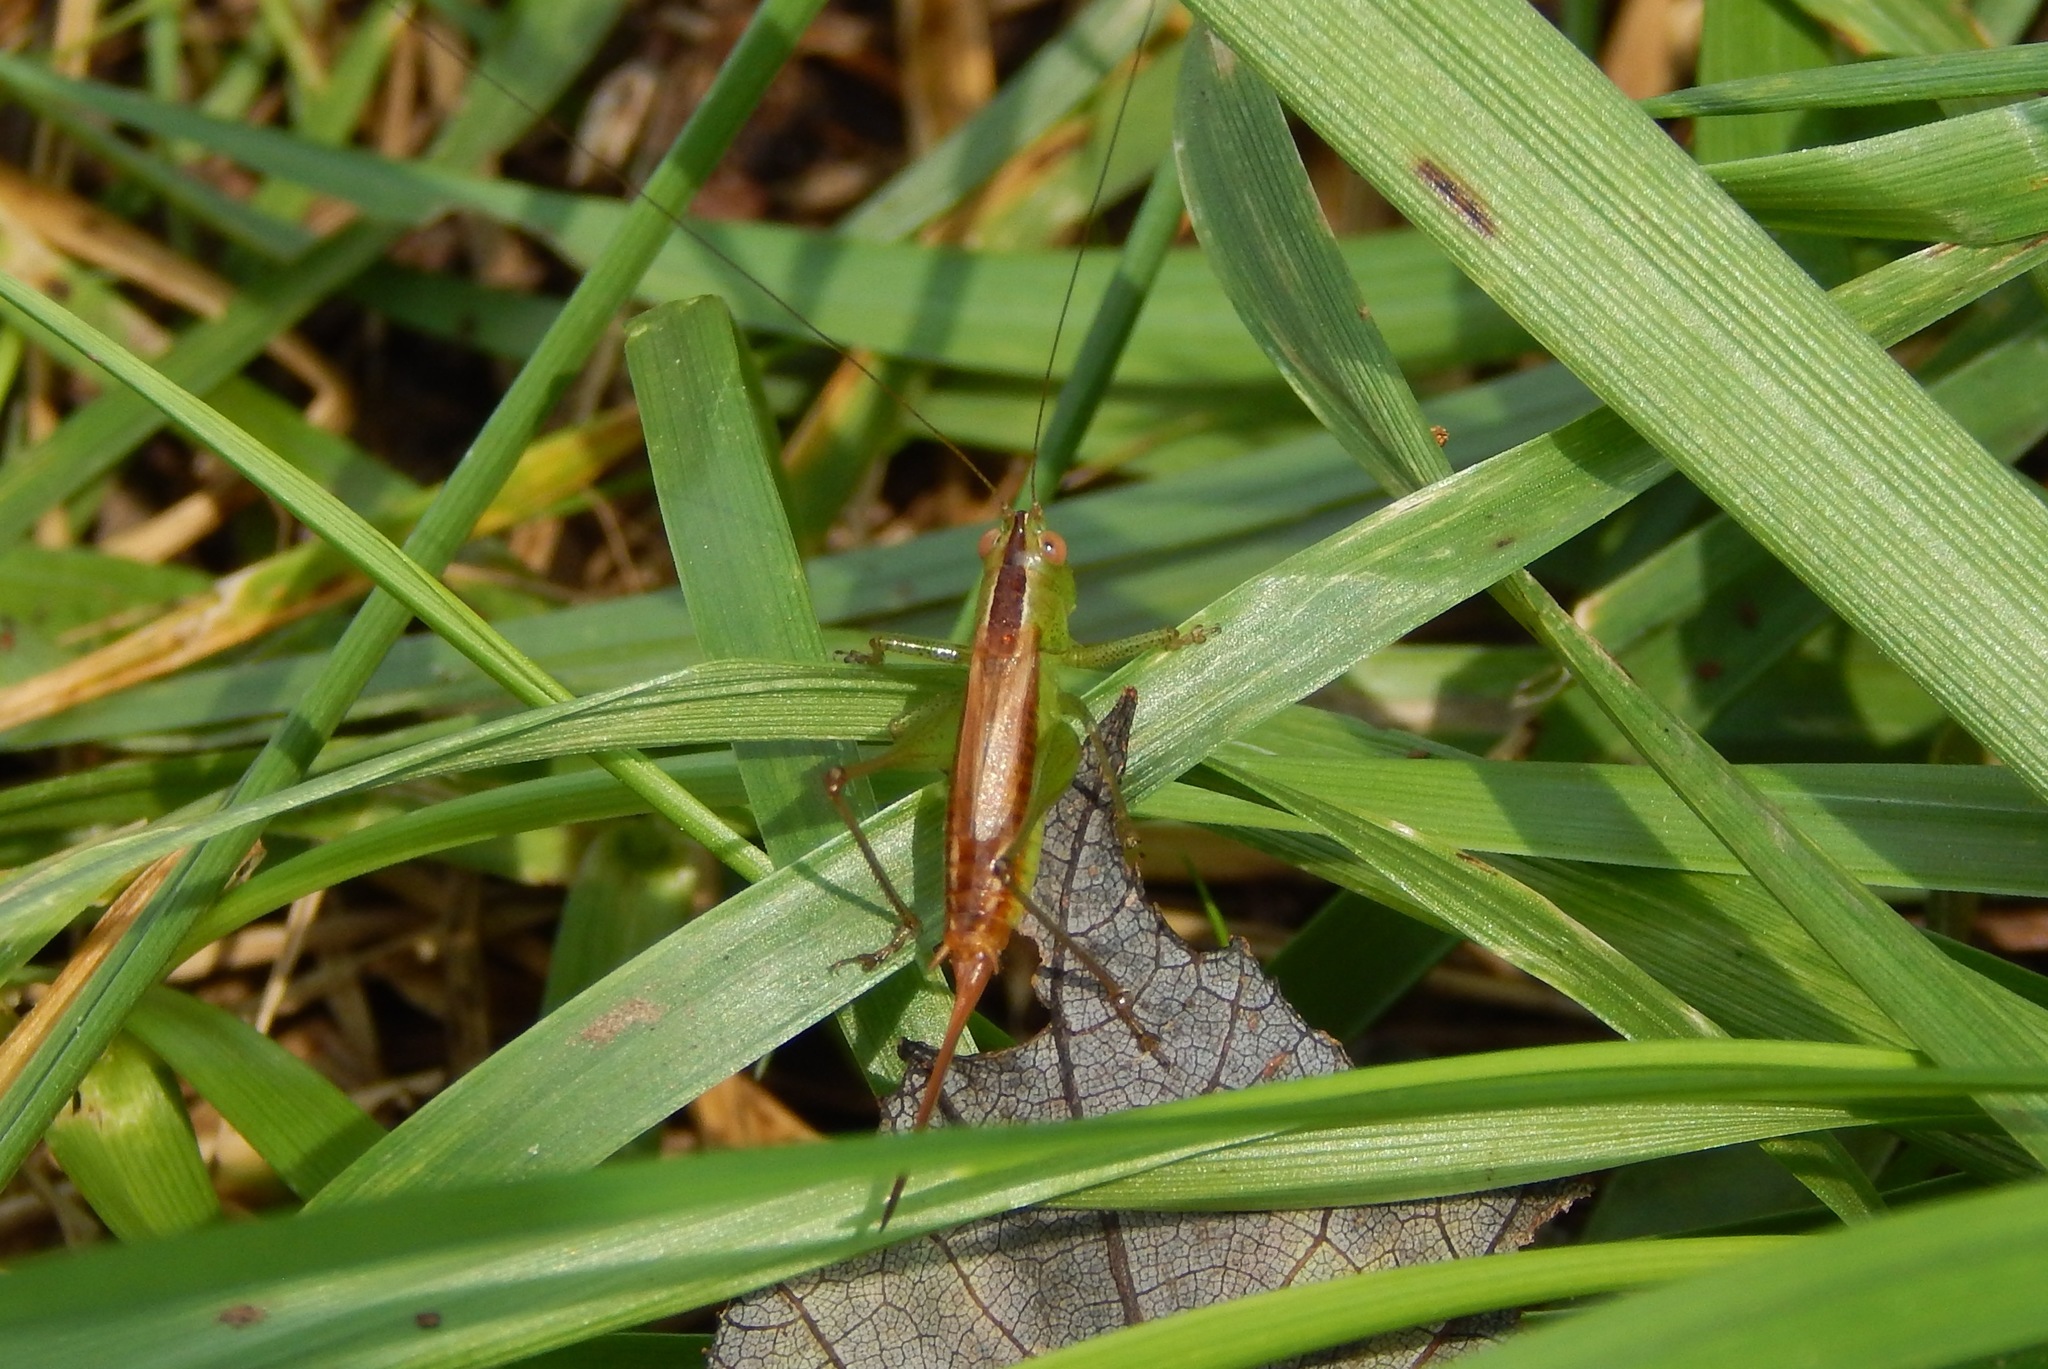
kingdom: Animalia
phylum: Arthropoda
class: Insecta
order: Orthoptera
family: Tettigoniidae
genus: Conocephalus
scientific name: Conocephalus brevipennis
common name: Short-winged meadow katydid
